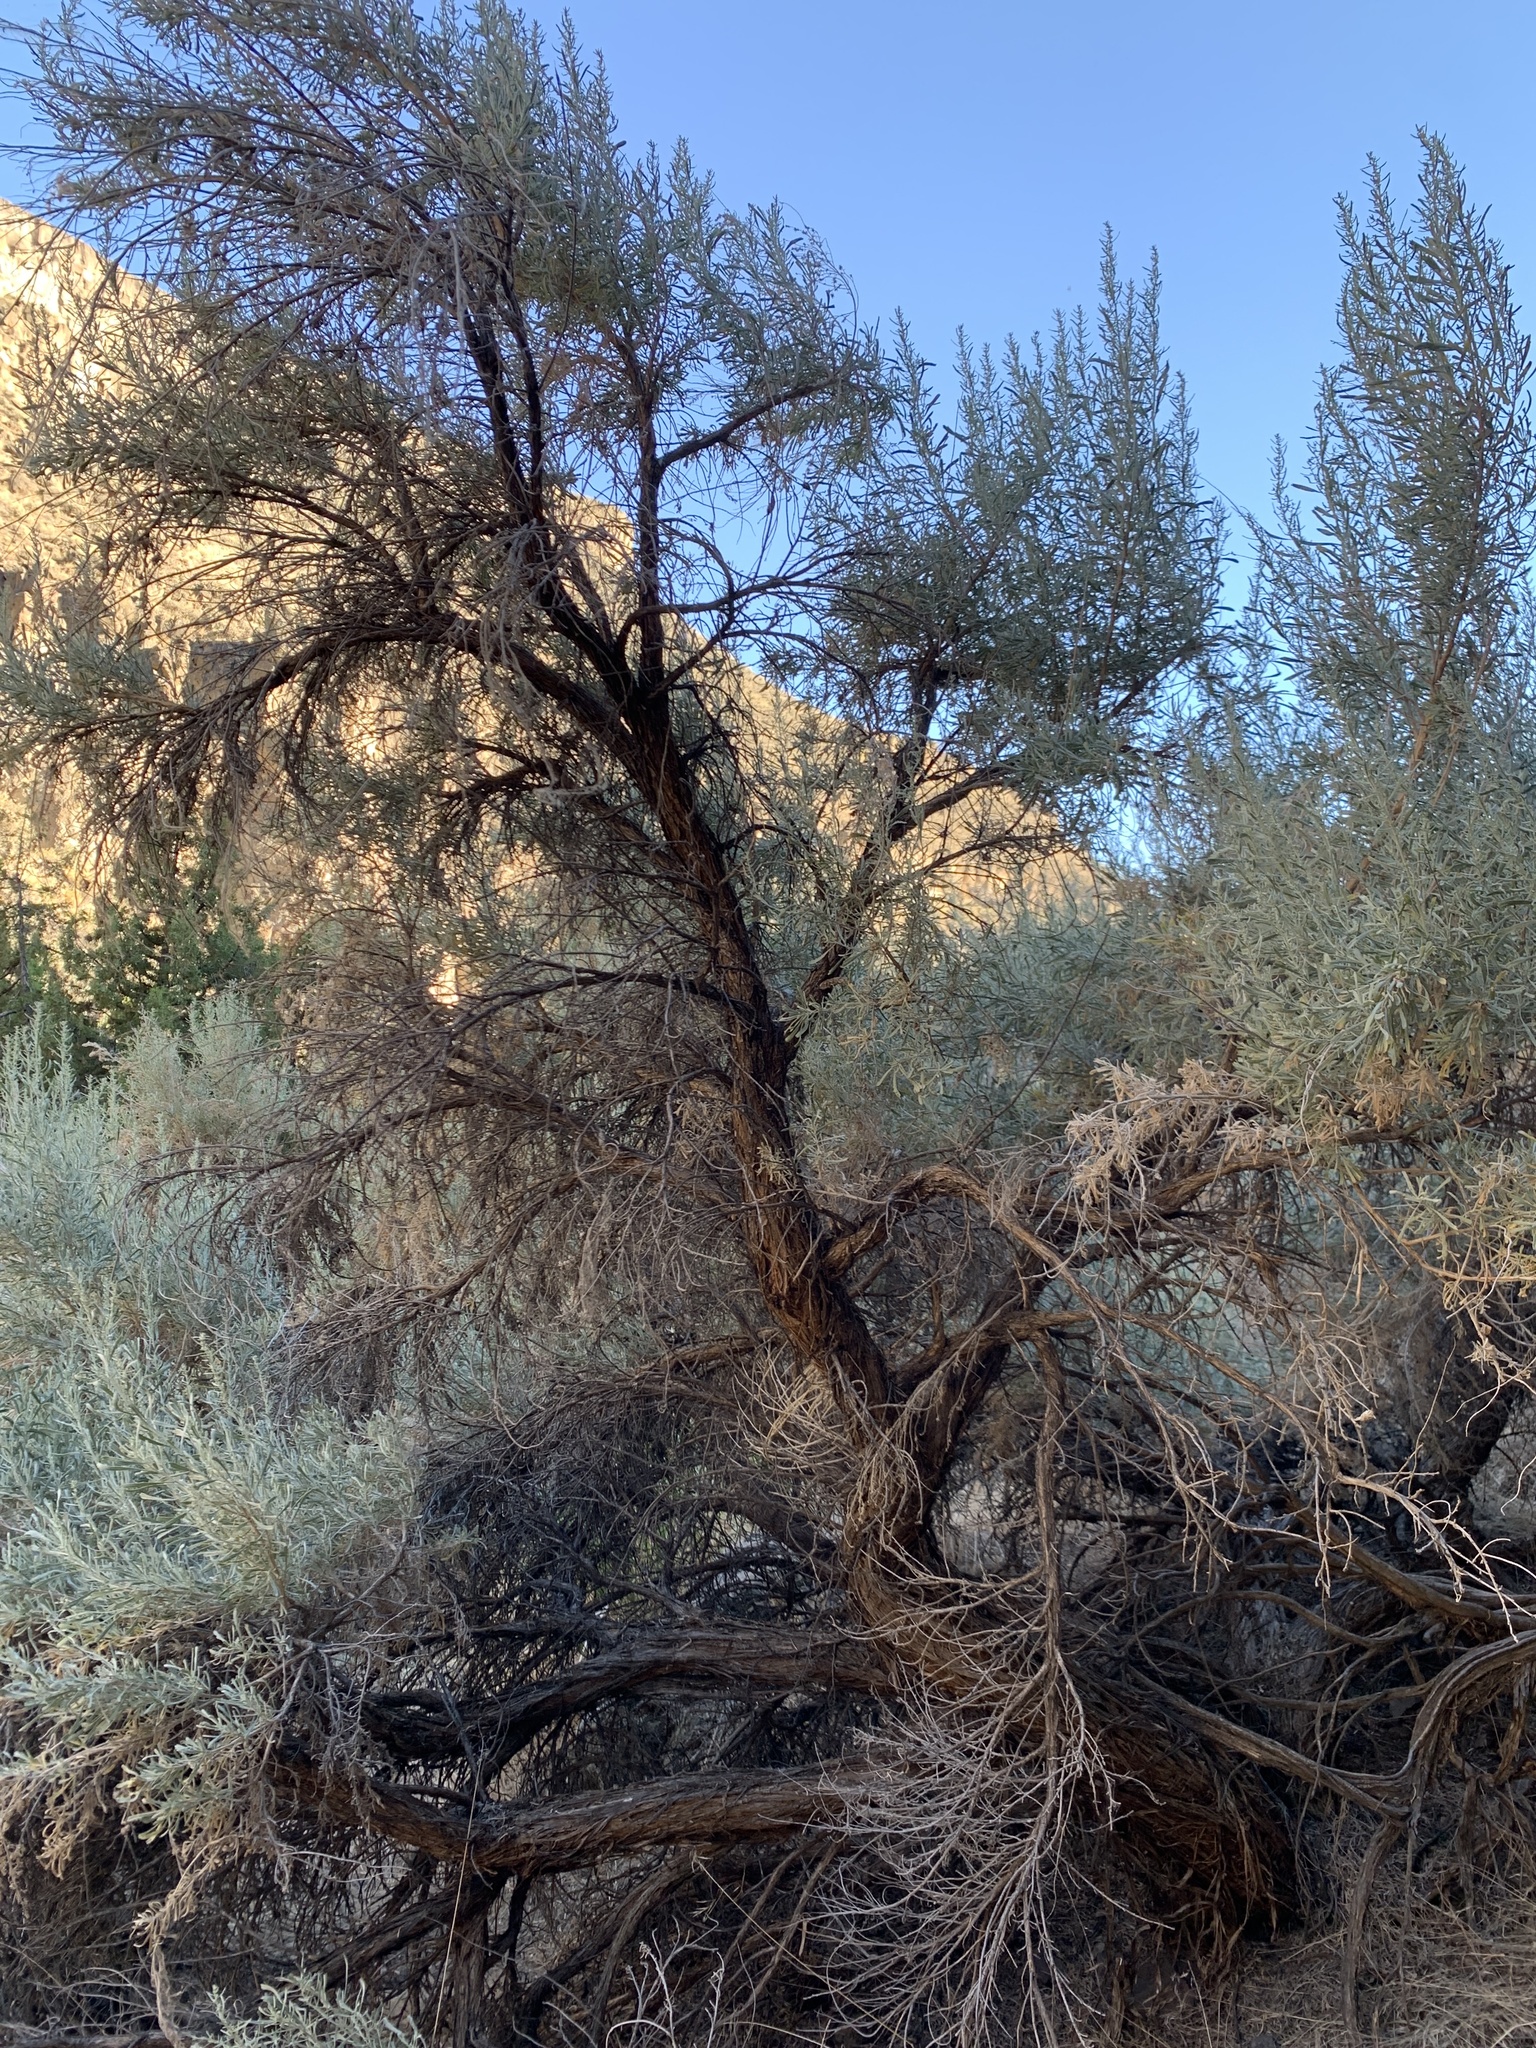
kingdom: Plantae
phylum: Tracheophyta
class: Magnoliopsida
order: Asterales
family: Asteraceae
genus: Artemisia
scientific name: Artemisia tridentata
